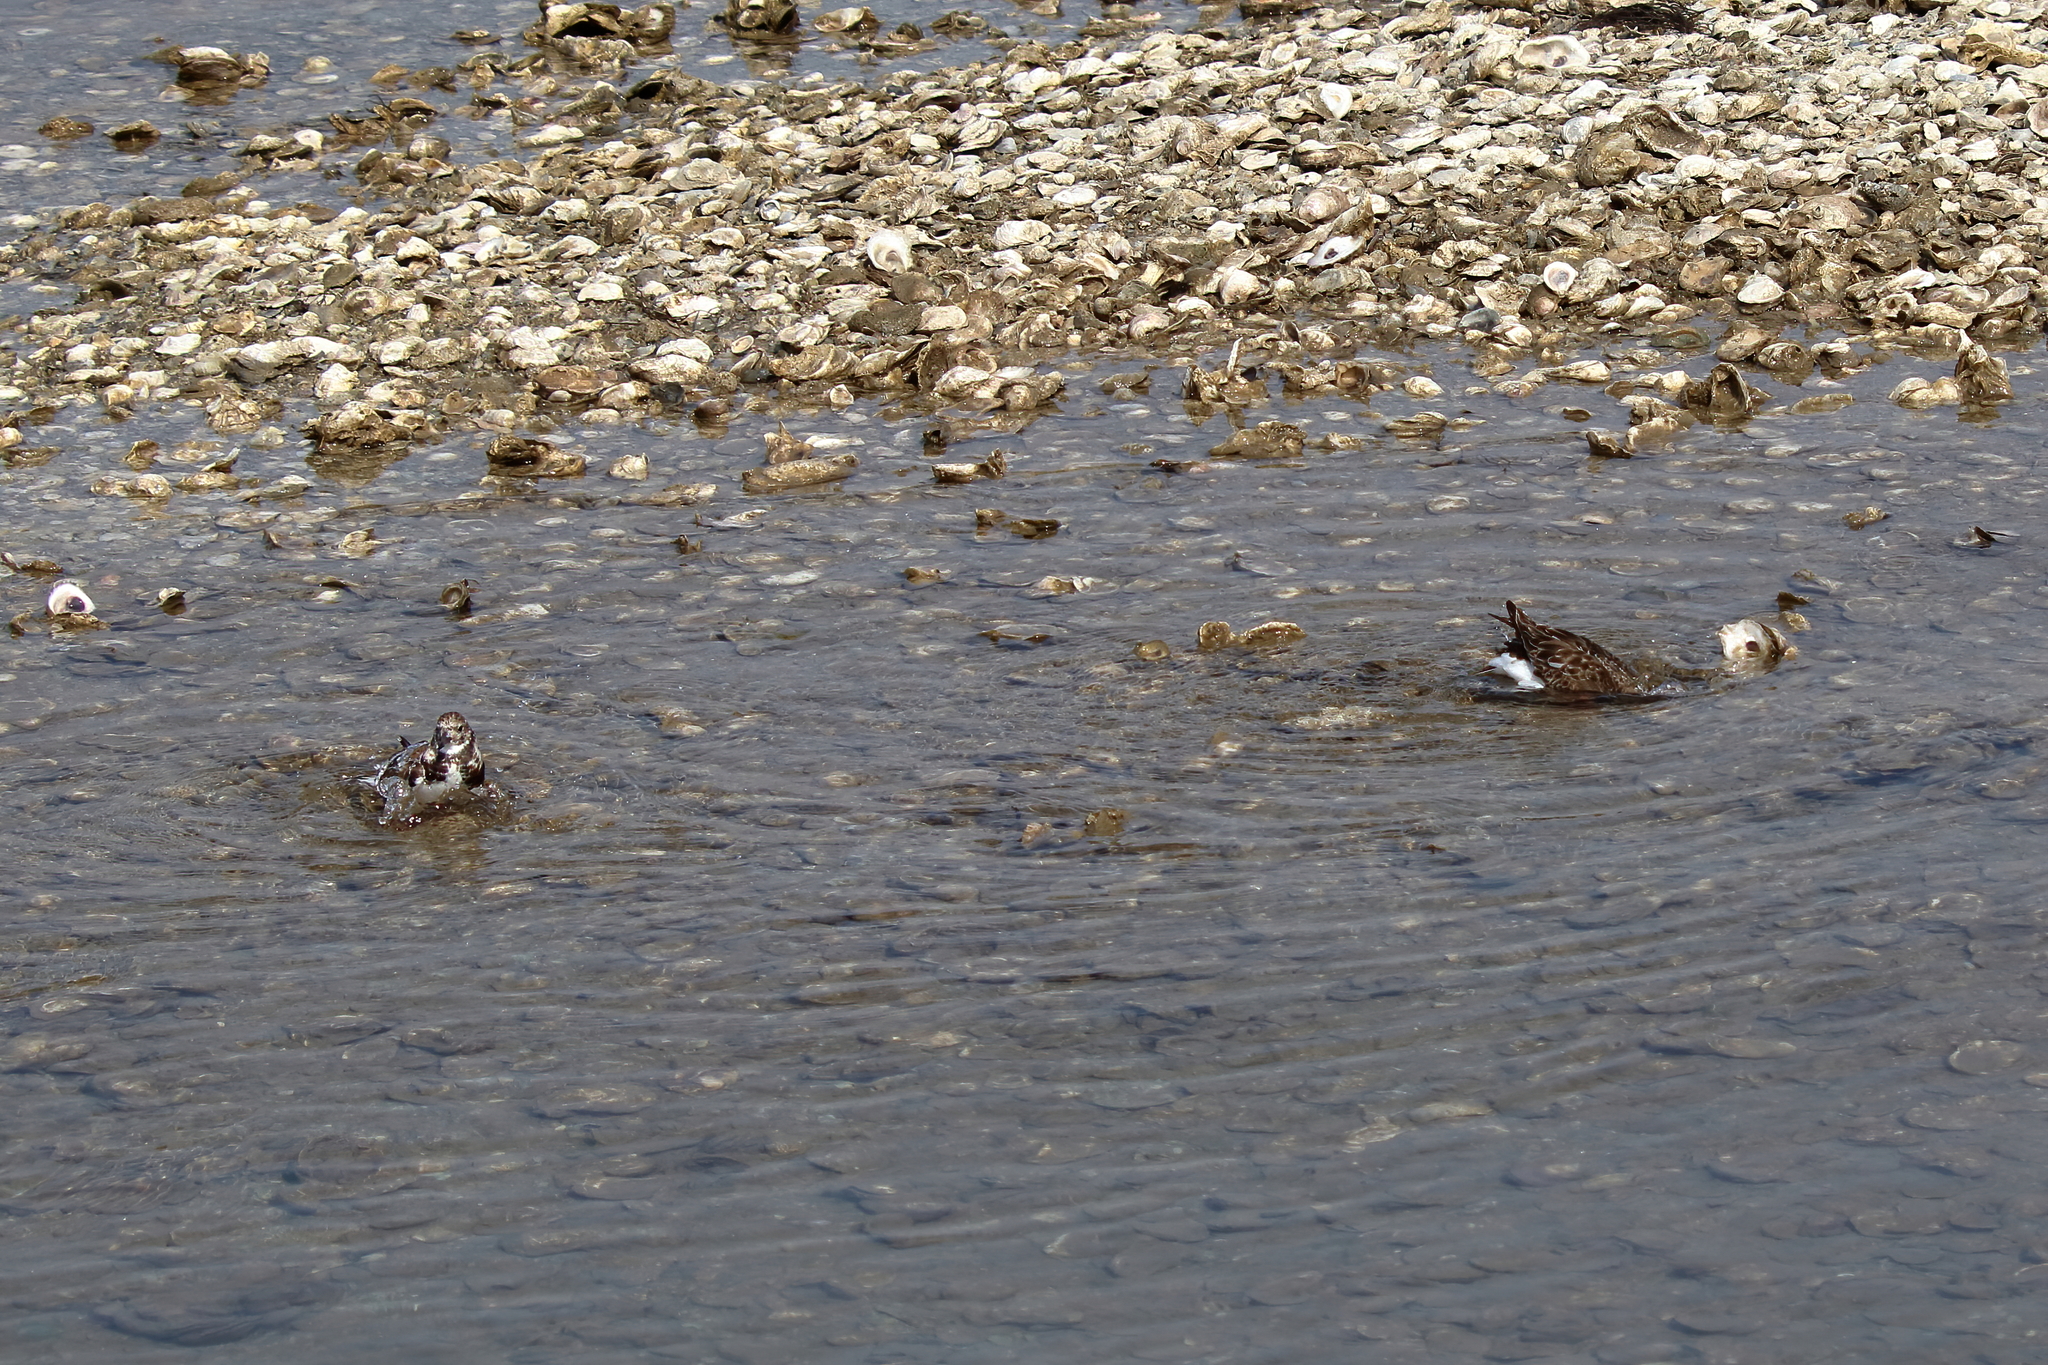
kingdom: Animalia
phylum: Chordata
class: Aves
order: Charadriiformes
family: Scolopacidae
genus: Arenaria
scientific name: Arenaria interpres
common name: Ruddy turnstone
